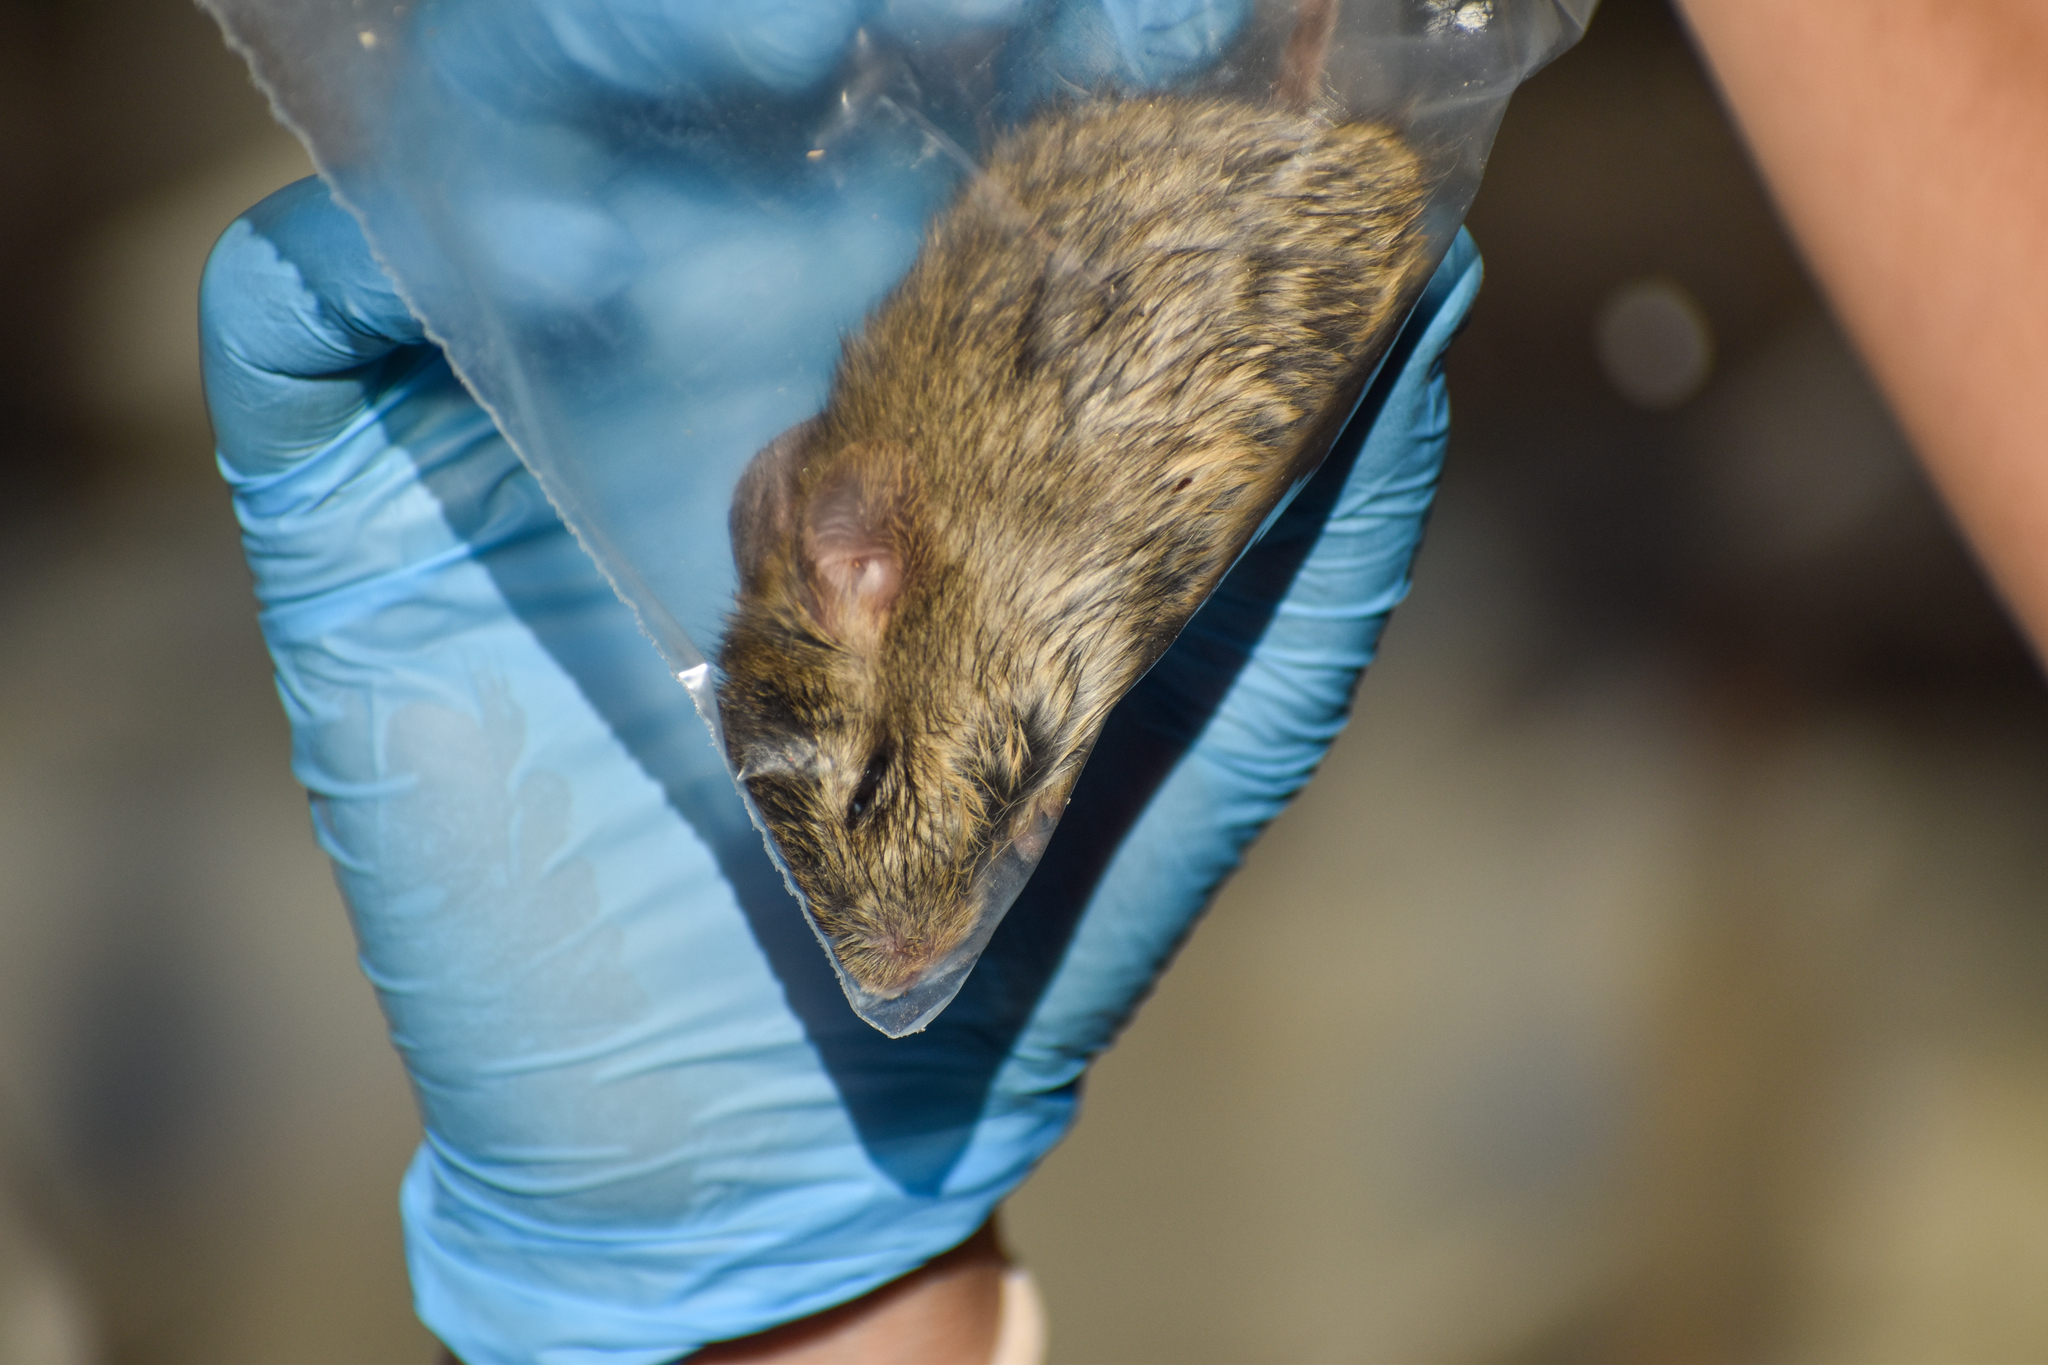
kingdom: Animalia
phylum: Chordata
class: Mammalia
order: Rodentia
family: Cricetidae
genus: Reithrodon
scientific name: Reithrodon auritus
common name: Bunny rat
